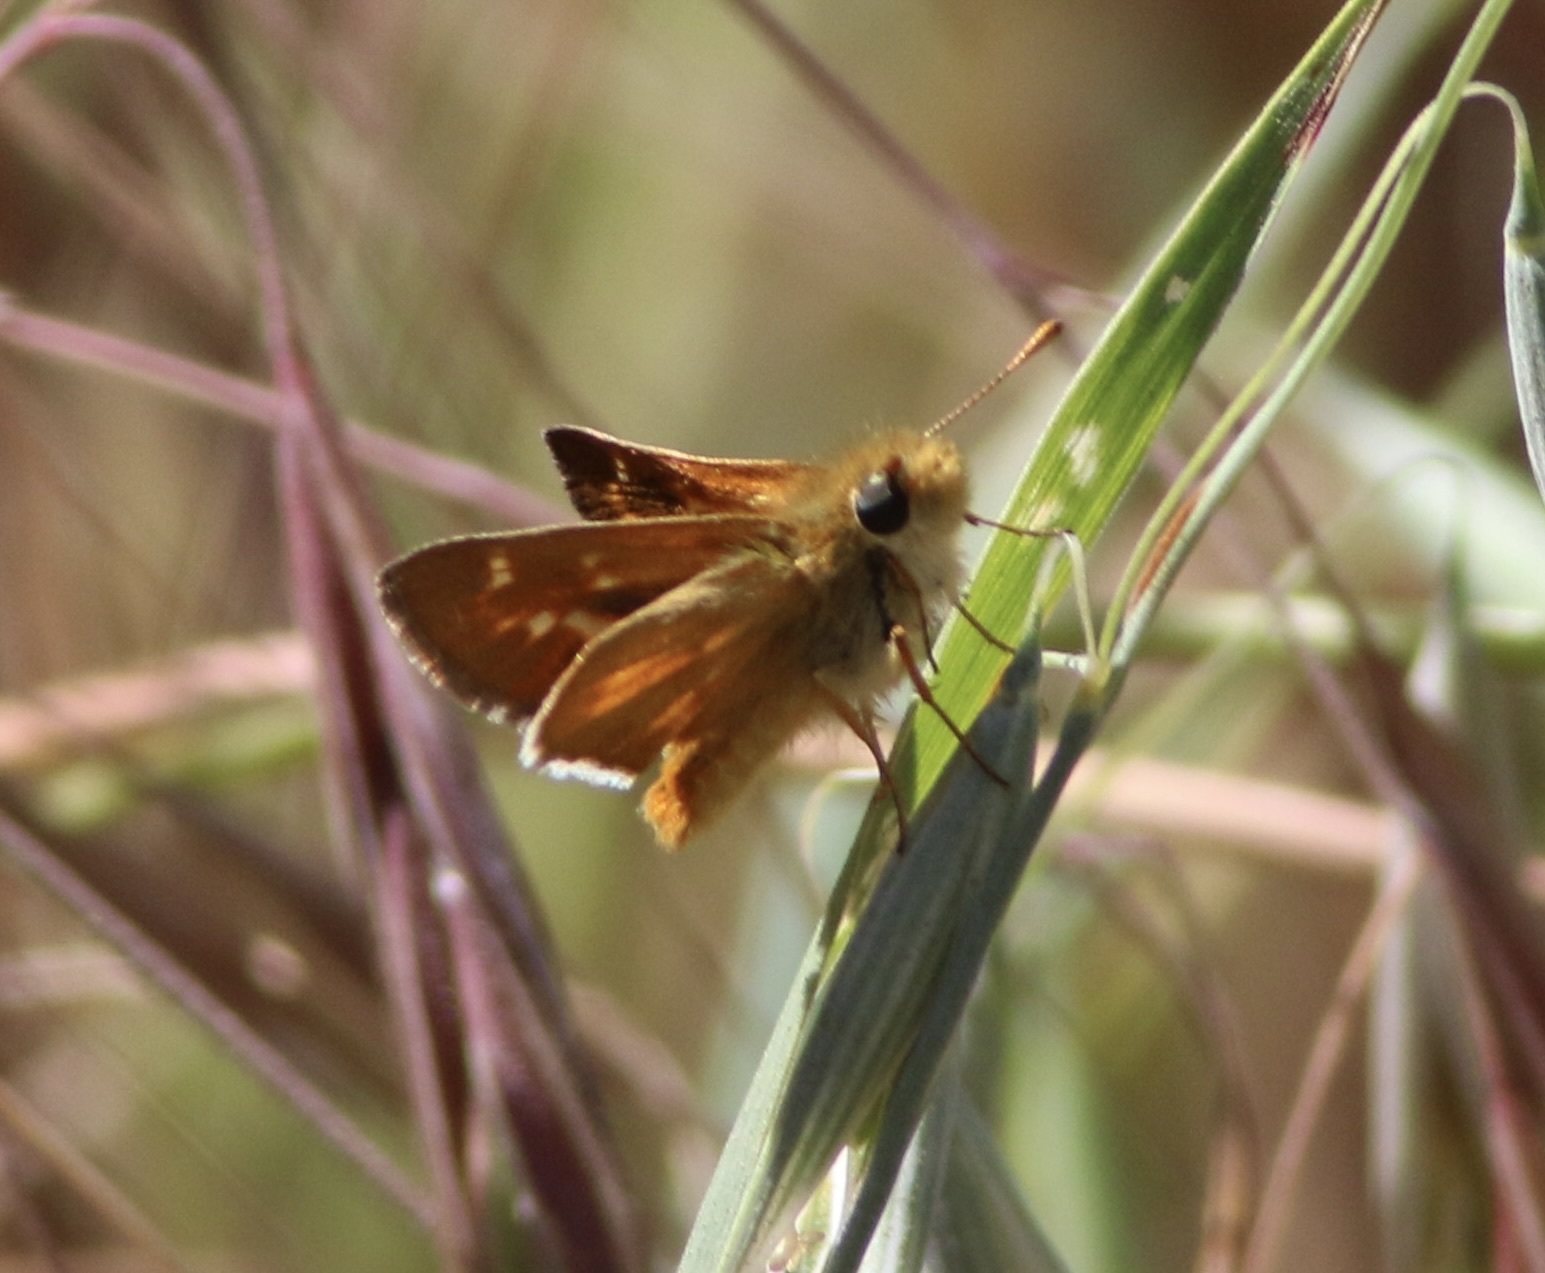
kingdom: Animalia
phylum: Arthropoda
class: Insecta
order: Lepidoptera
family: Hesperiidae
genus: Ochlodes
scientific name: Ochlodes agricola
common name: Rural skipper
